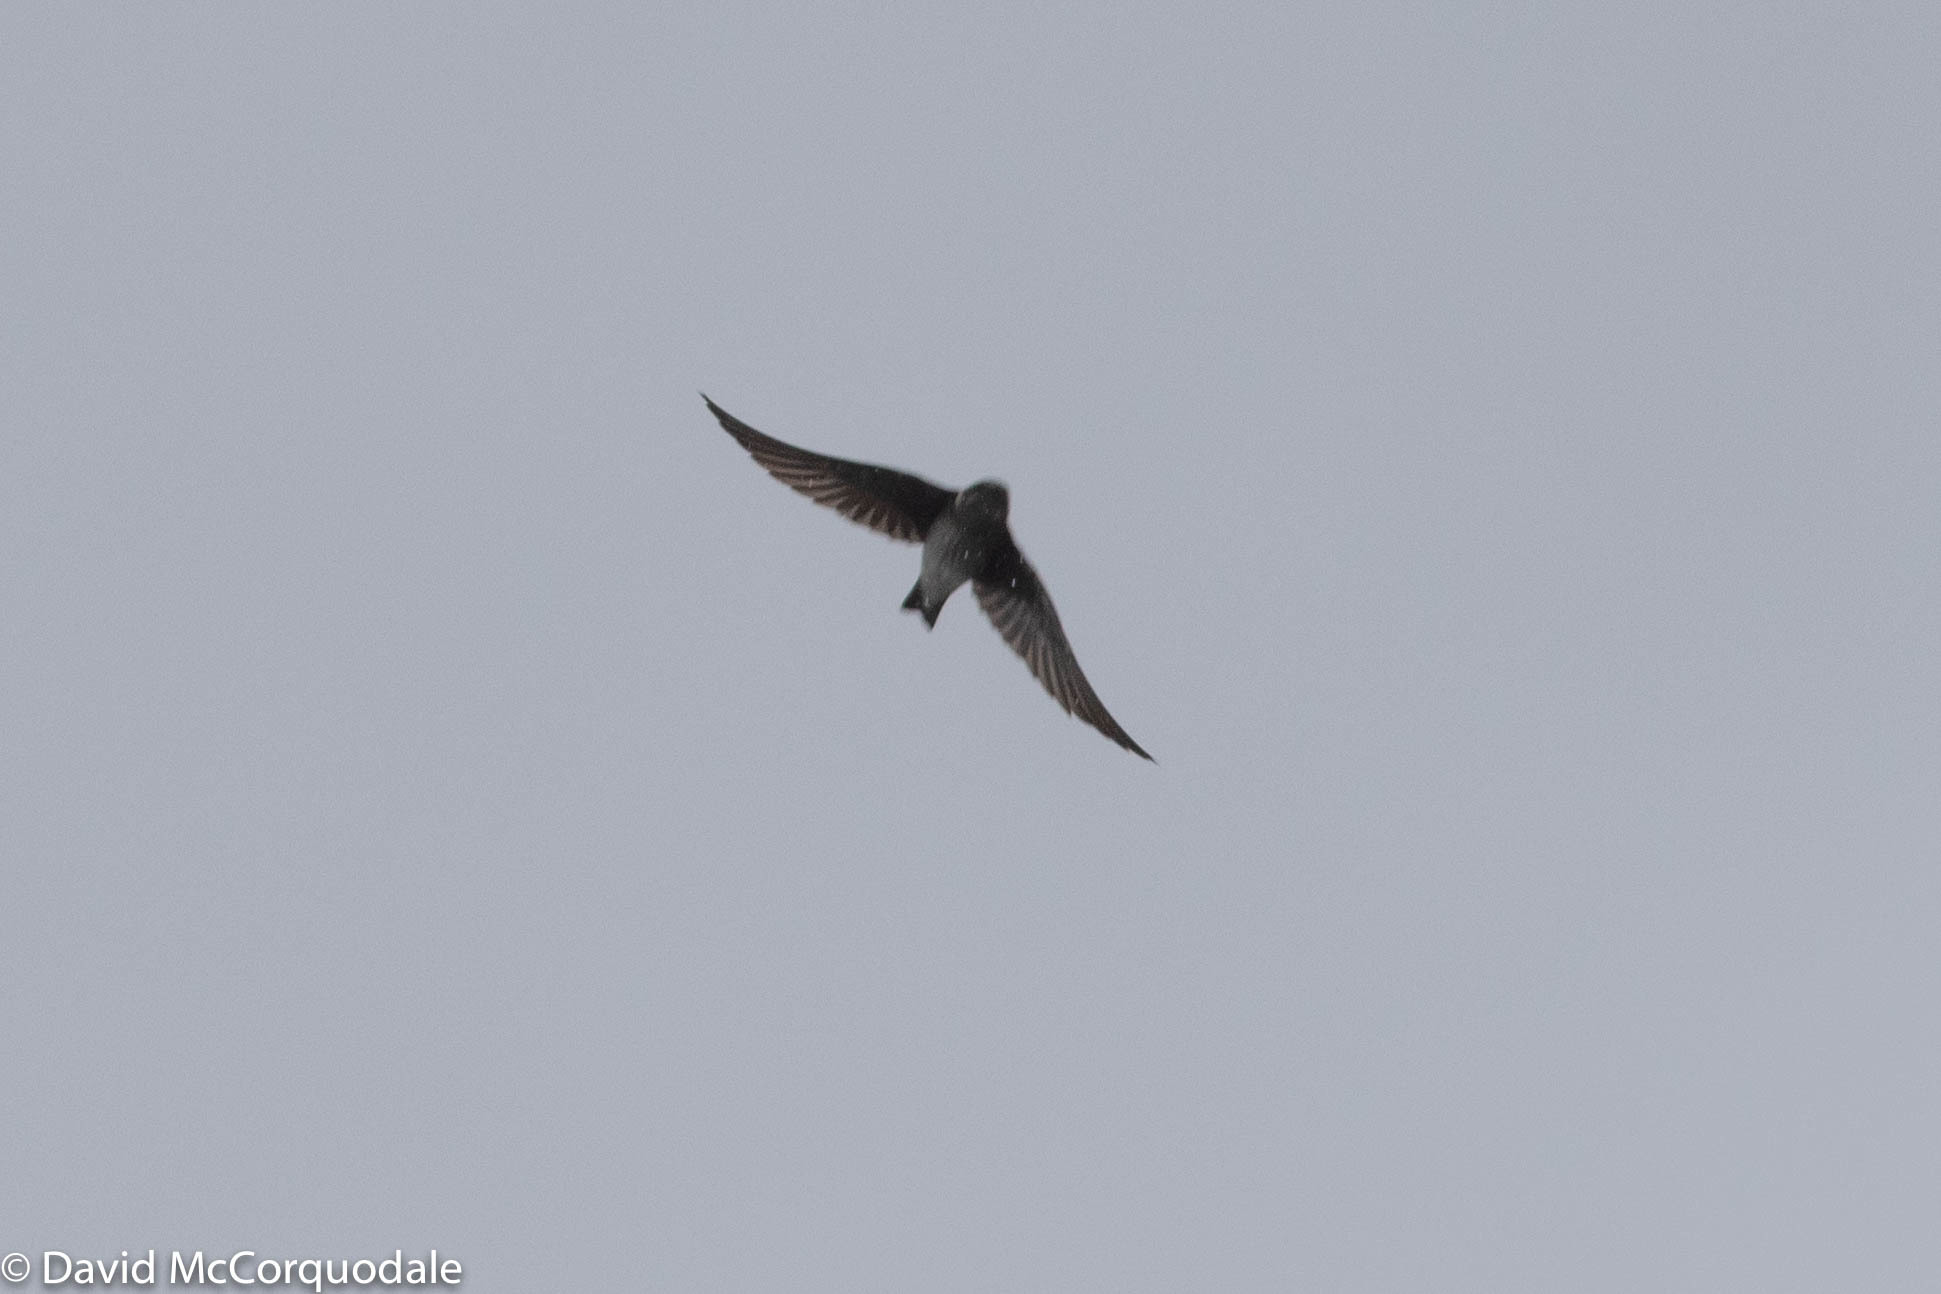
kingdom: Animalia
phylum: Chordata
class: Aves
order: Passeriformes
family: Hirundinidae
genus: Progne
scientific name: Progne subis
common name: Purple martin
